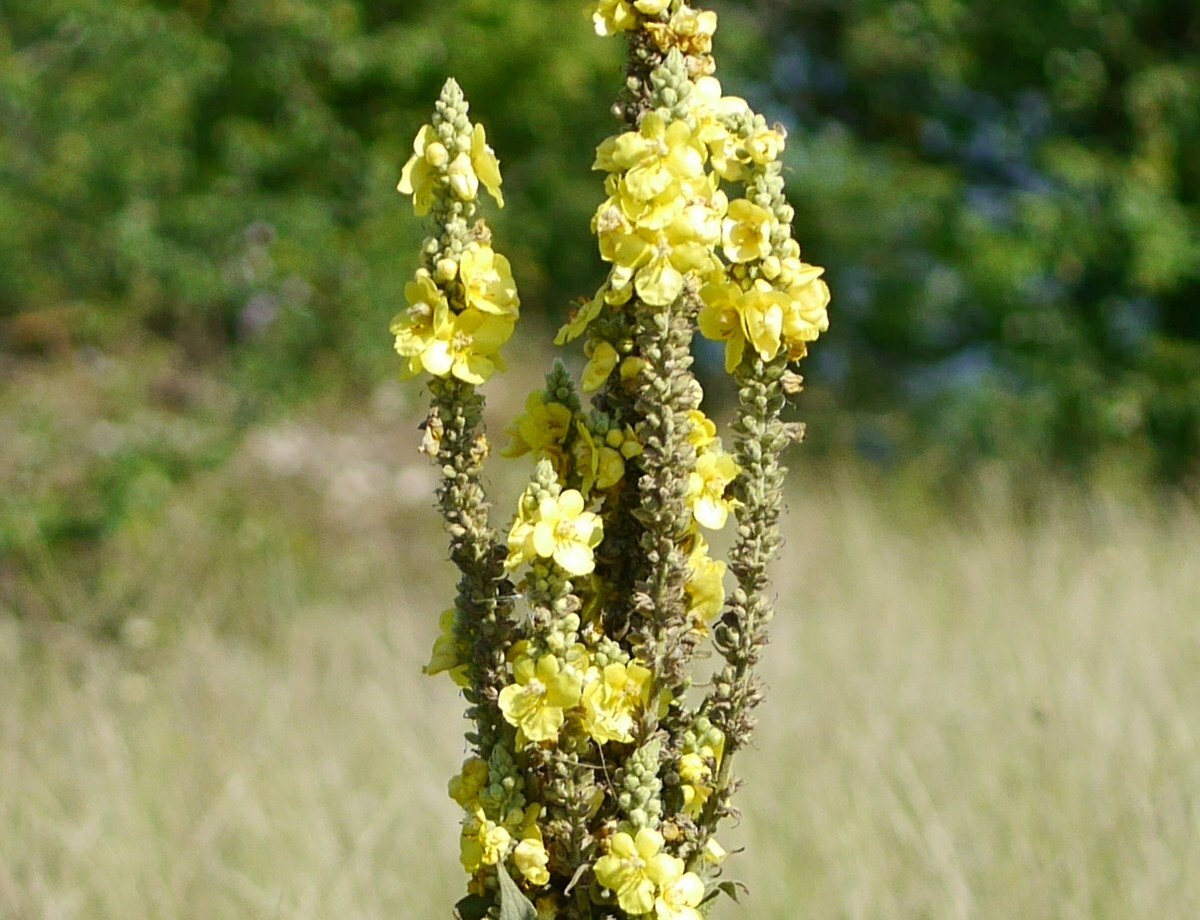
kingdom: Plantae
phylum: Tracheophyta
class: Magnoliopsida
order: Lamiales
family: Scrophulariaceae
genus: Verbascum
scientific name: Verbascum densiflorum
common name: Dense-flowered mullein
